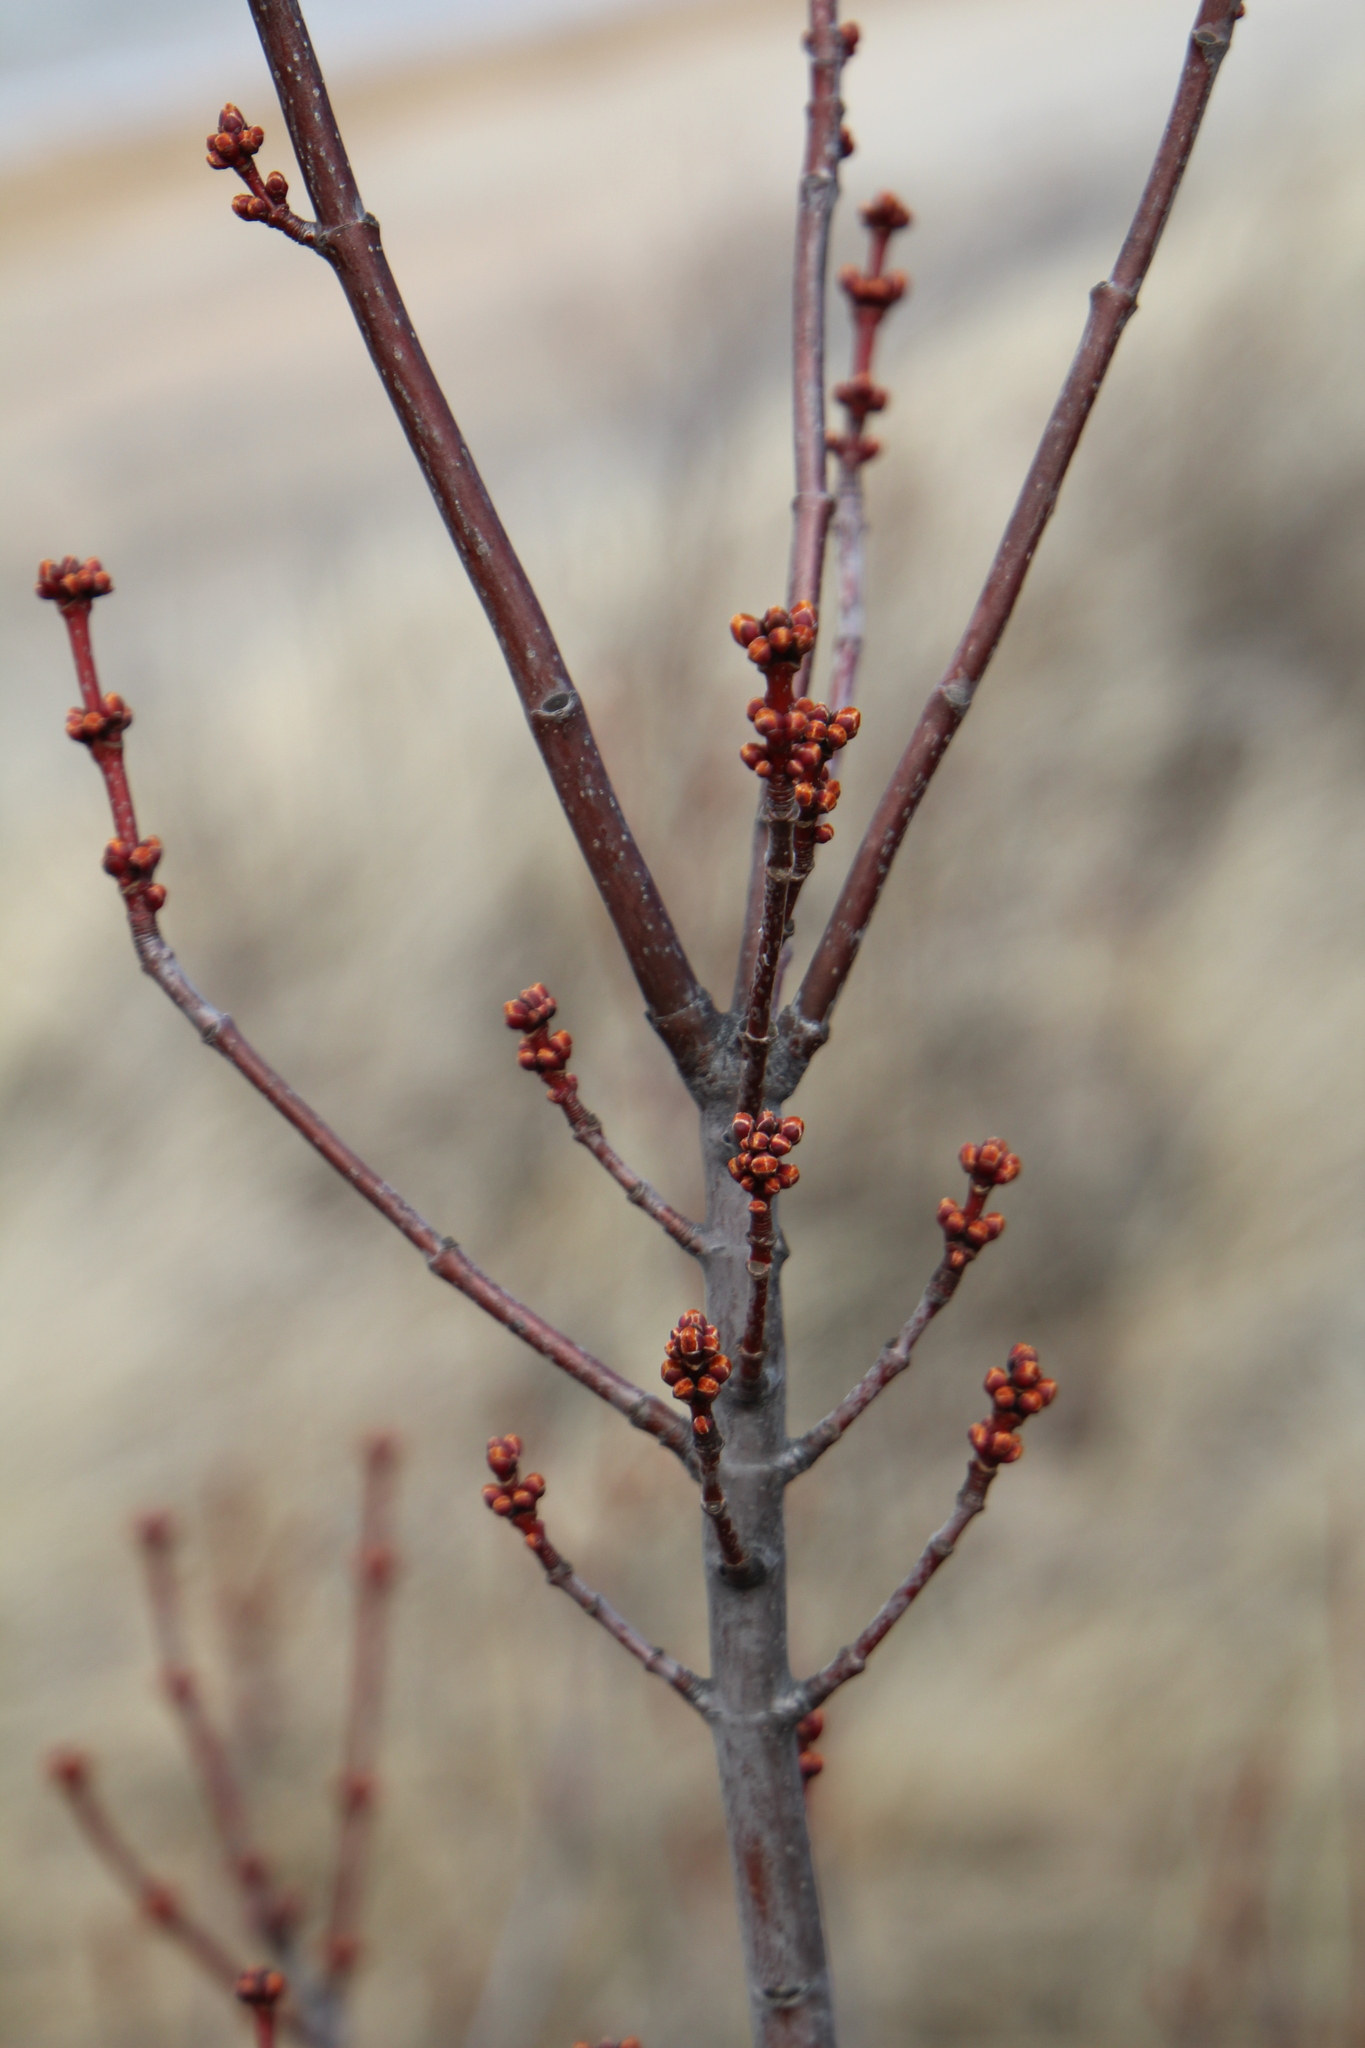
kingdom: Plantae
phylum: Tracheophyta
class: Magnoliopsida
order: Sapindales
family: Sapindaceae
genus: Acer
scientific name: Acer rubrum
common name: Red maple
